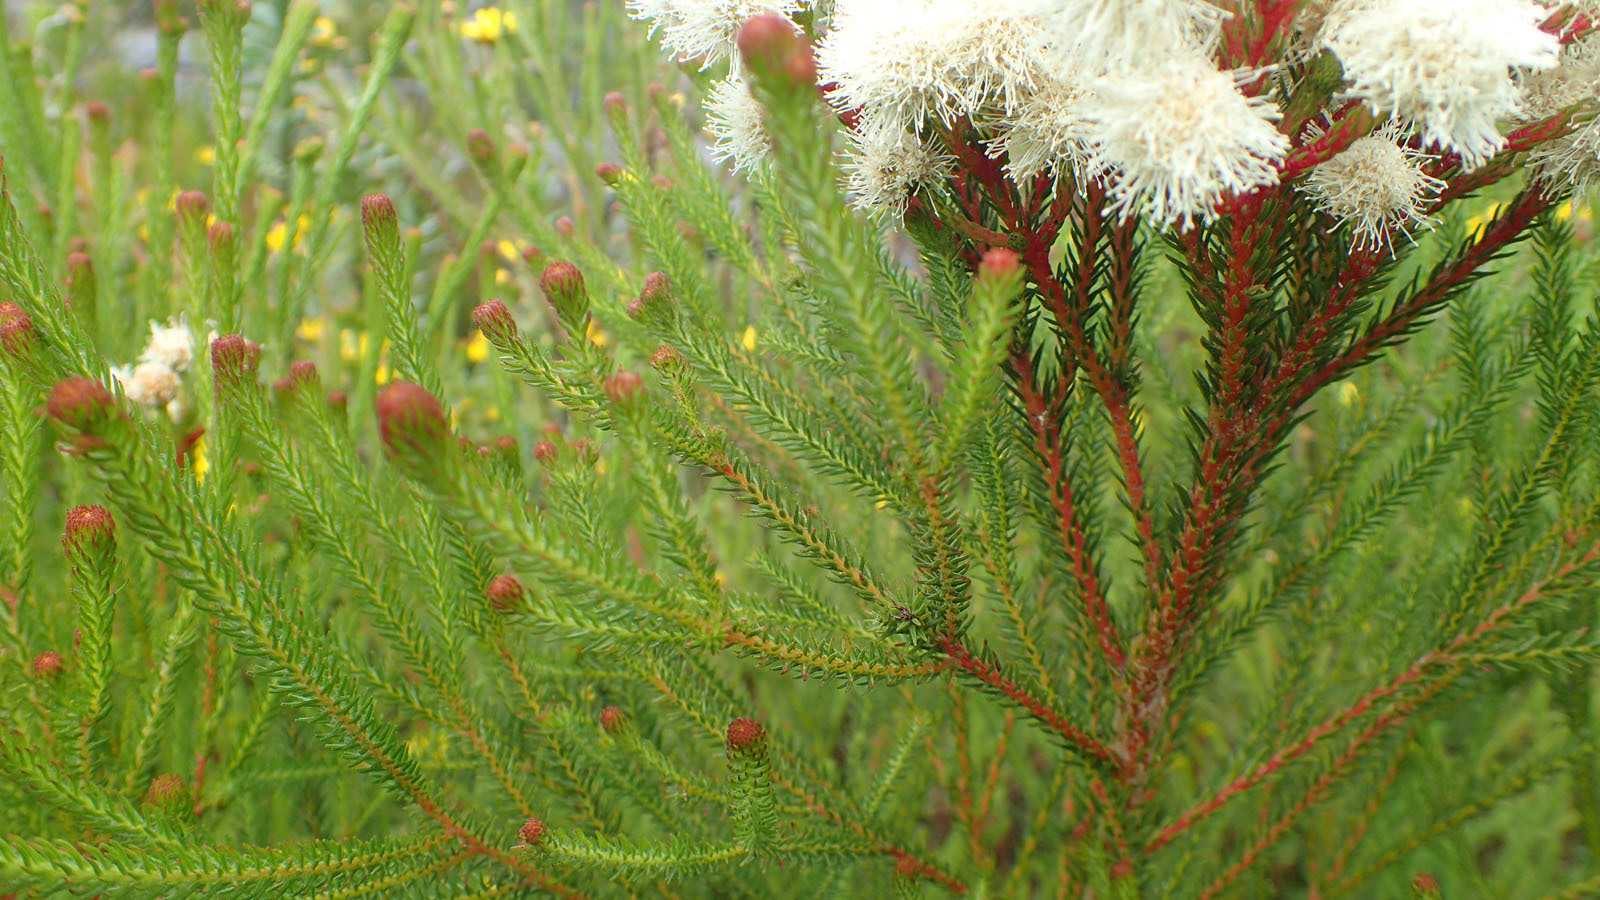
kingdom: Plantae
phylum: Tracheophyta
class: Magnoliopsida
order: Bruniales
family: Bruniaceae
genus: Berzelia
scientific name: Berzelia intermedia
